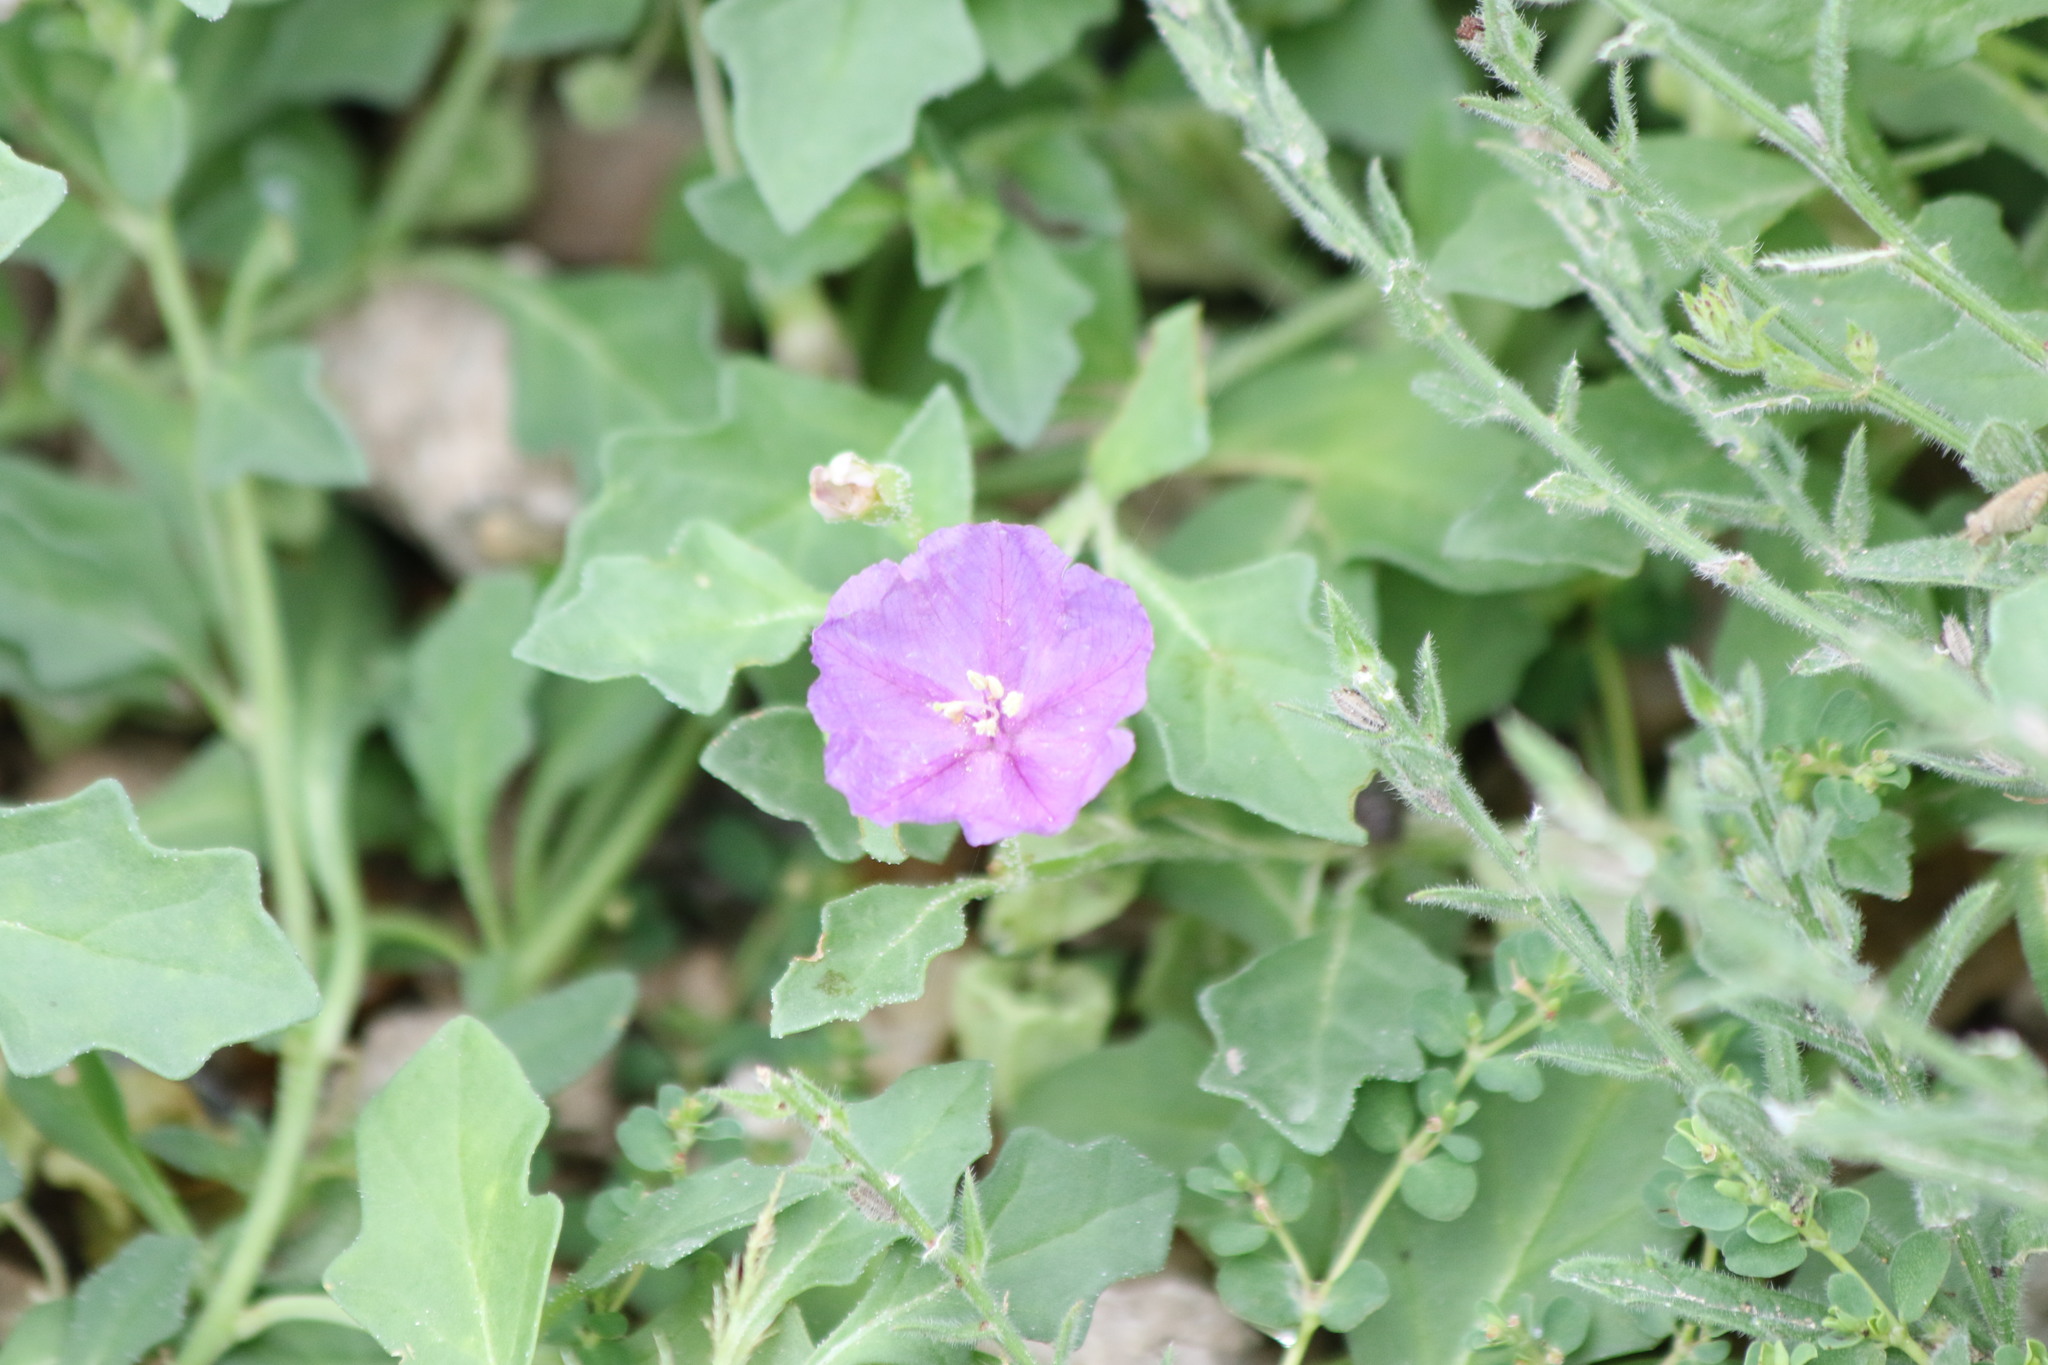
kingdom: Plantae
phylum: Tracheophyta
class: Magnoliopsida
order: Solanales
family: Solanaceae
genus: Quincula
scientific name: Quincula lobata
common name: Purple-ground-cherry
